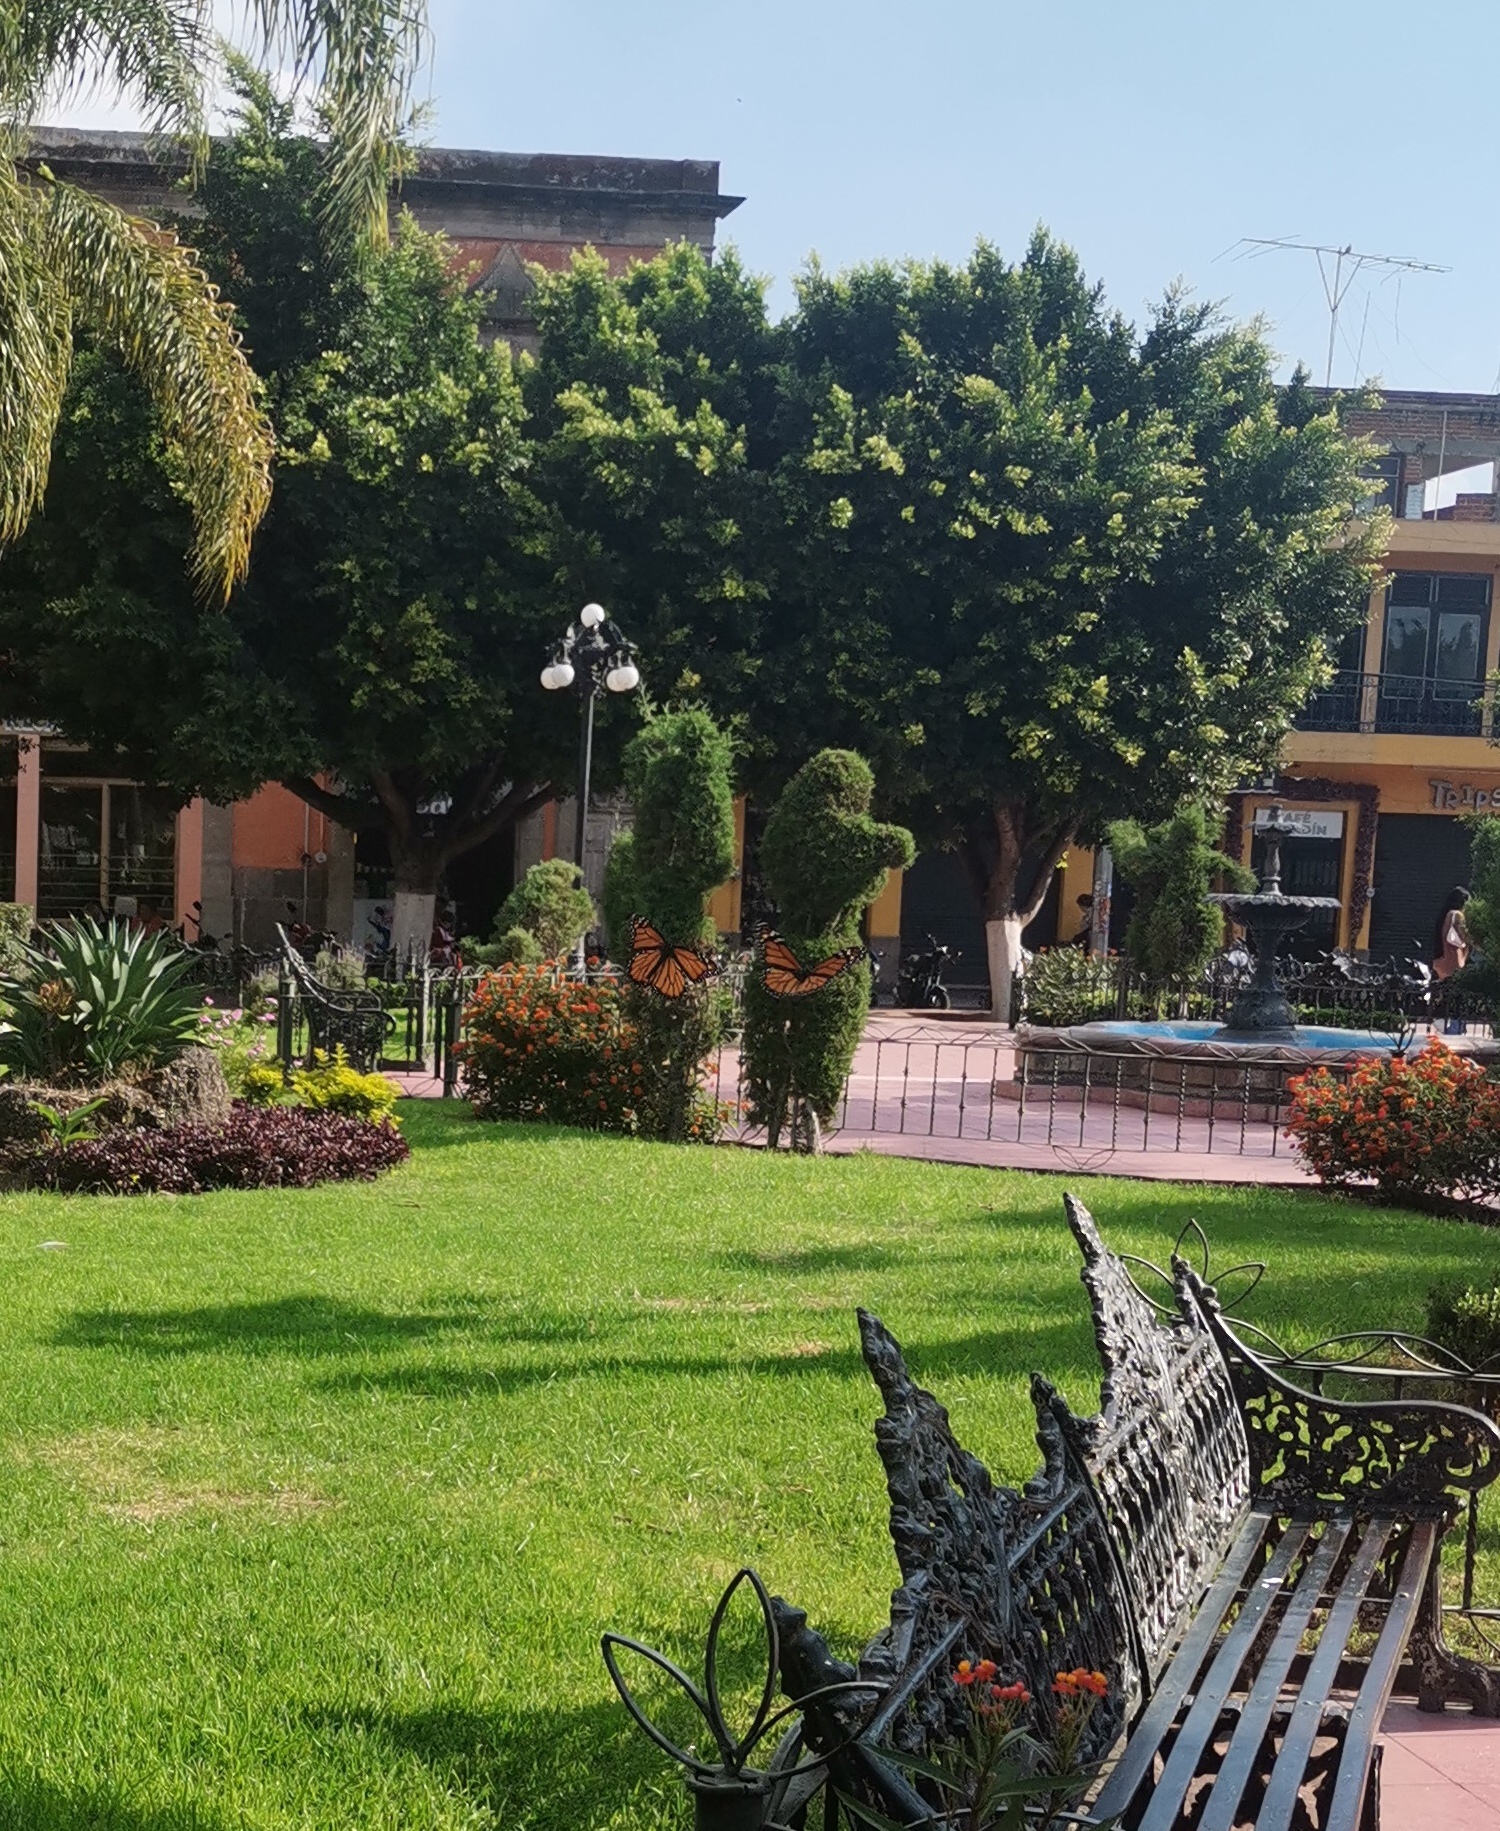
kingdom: Animalia
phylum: Arthropoda
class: Insecta
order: Lepidoptera
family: Nymphalidae
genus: Danaus
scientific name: Danaus plexippus
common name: Monarch
